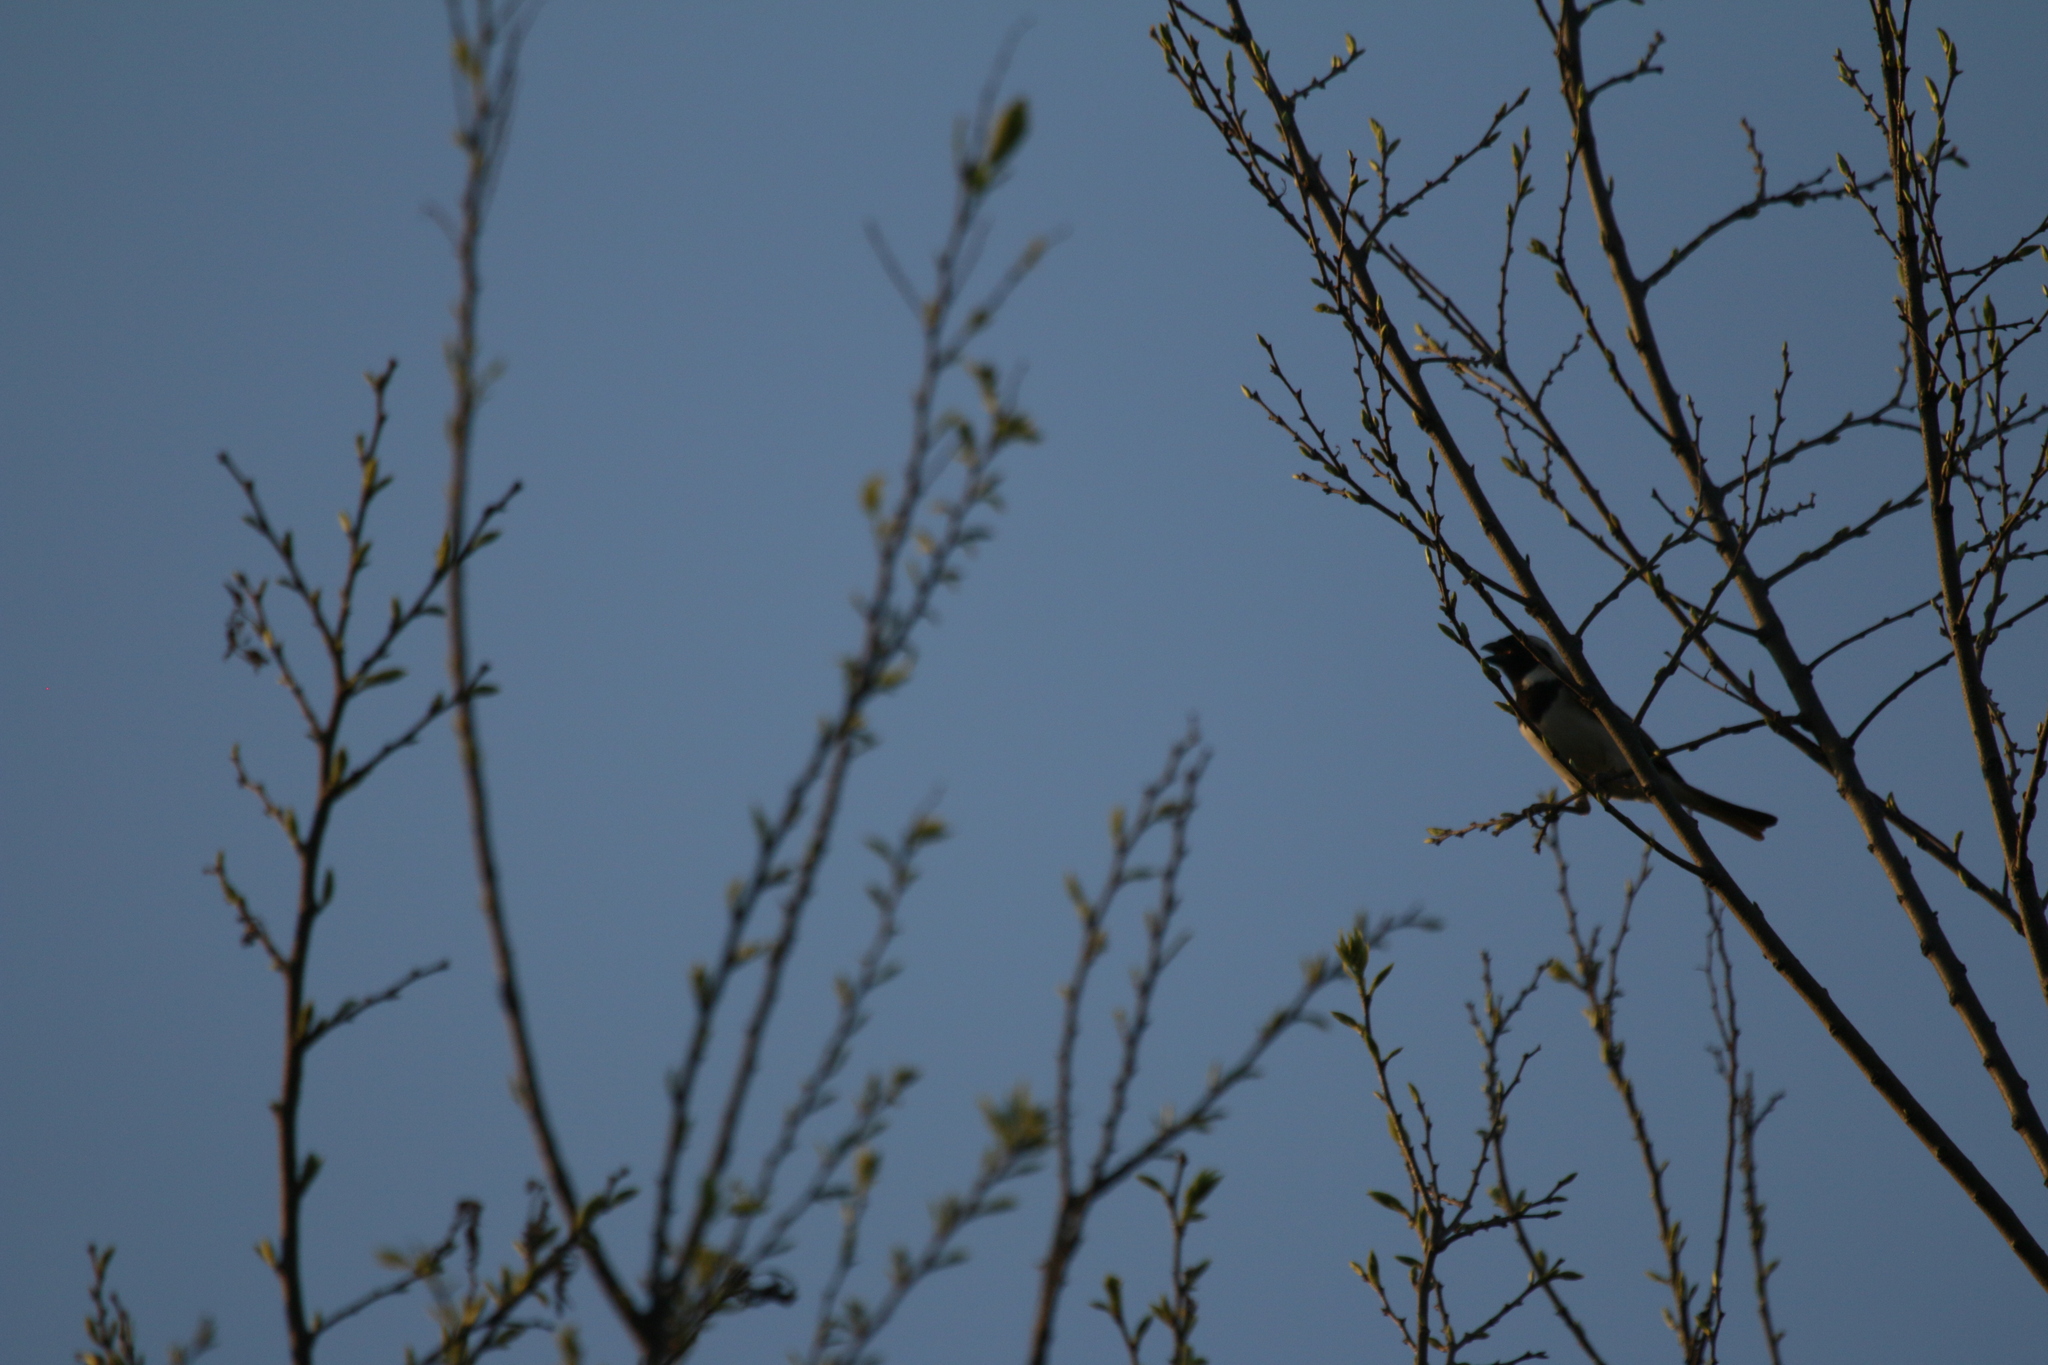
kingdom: Animalia
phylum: Chordata
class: Aves
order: Passeriformes
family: Passeridae
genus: Passer
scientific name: Passer melanurus
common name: Cape sparrow
